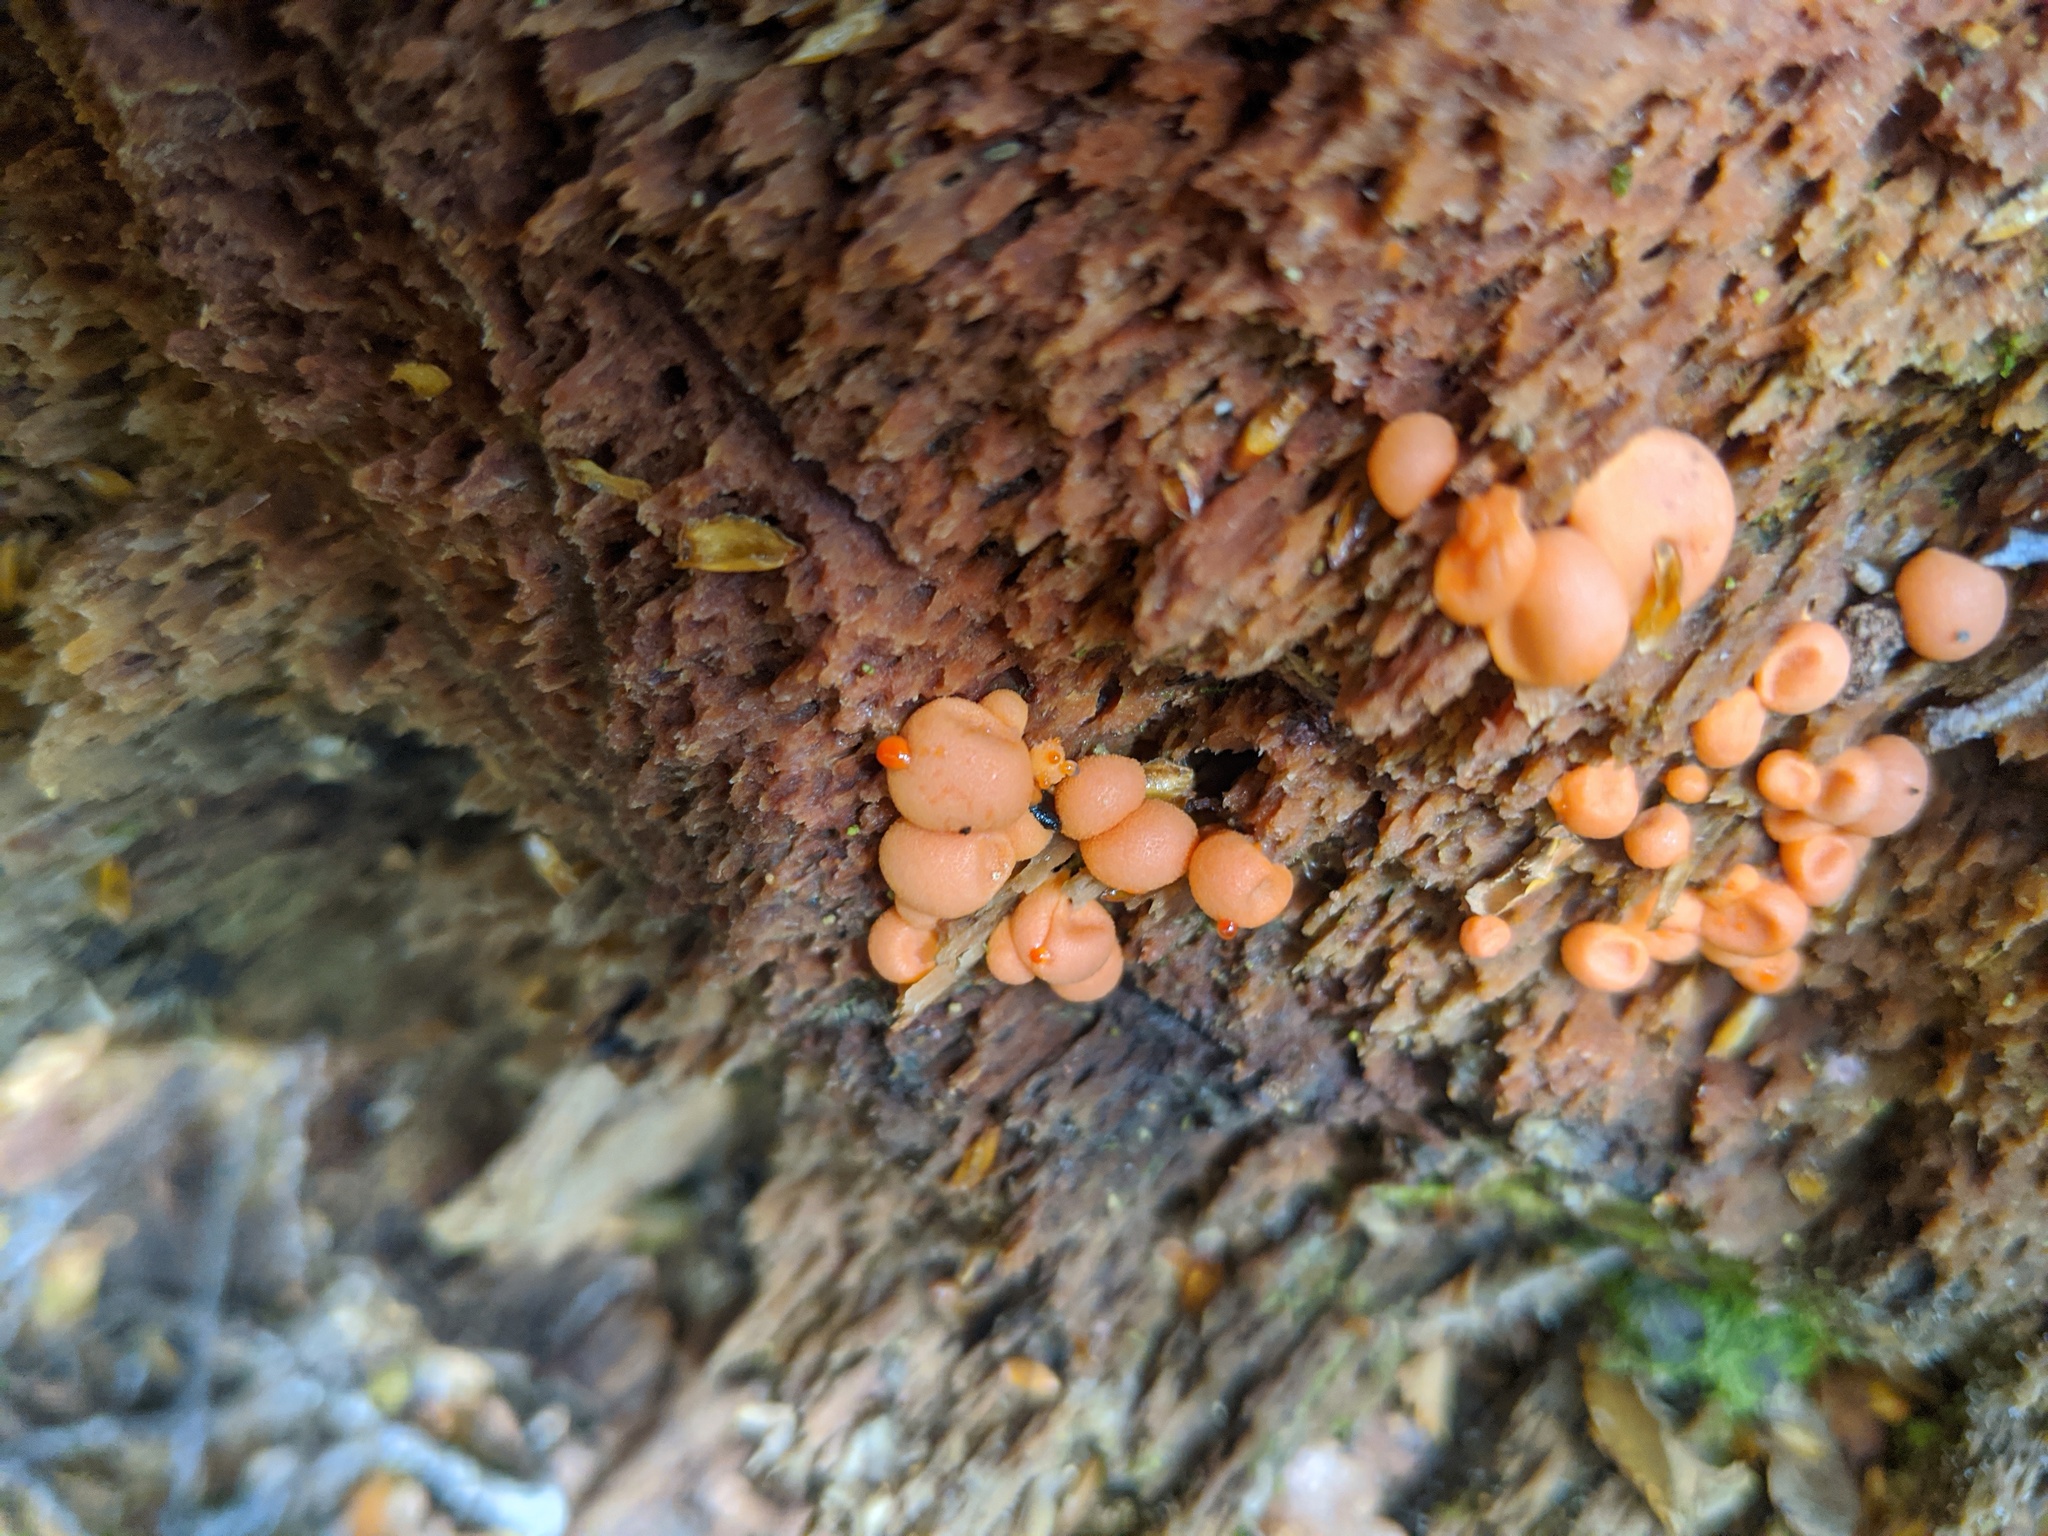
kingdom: Protozoa
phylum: Mycetozoa
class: Myxomycetes
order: Cribrariales
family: Tubiferaceae
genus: Lycogala
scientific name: Lycogala epidendrum
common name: Wolf's milk
